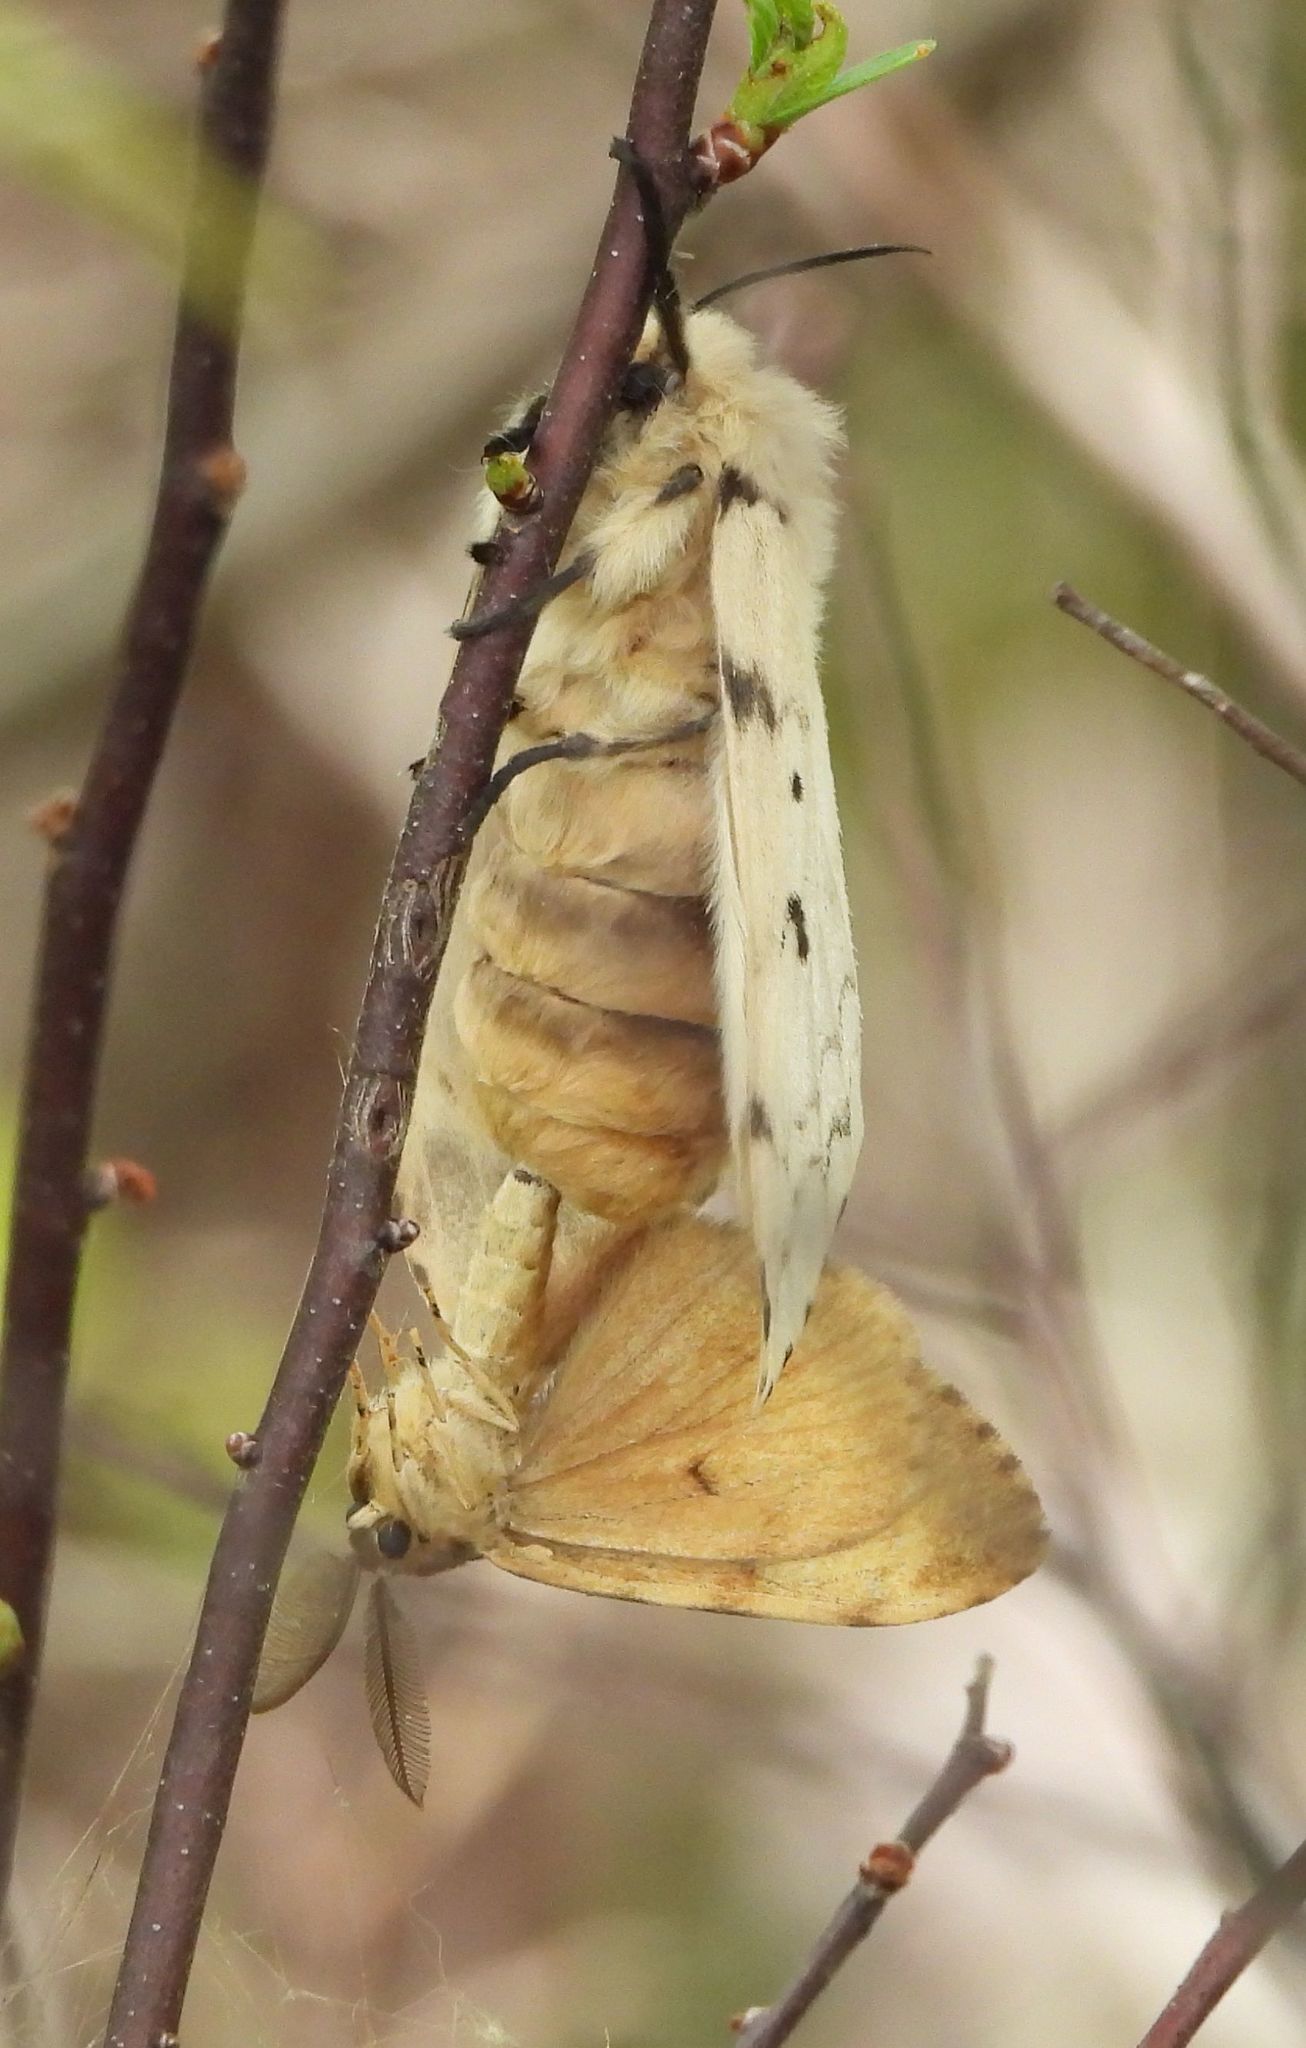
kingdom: Animalia
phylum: Arthropoda
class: Insecta
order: Lepidoptera
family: Erebidae
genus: Lymantria
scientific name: Lymantria dispar
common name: Gypsy moth
